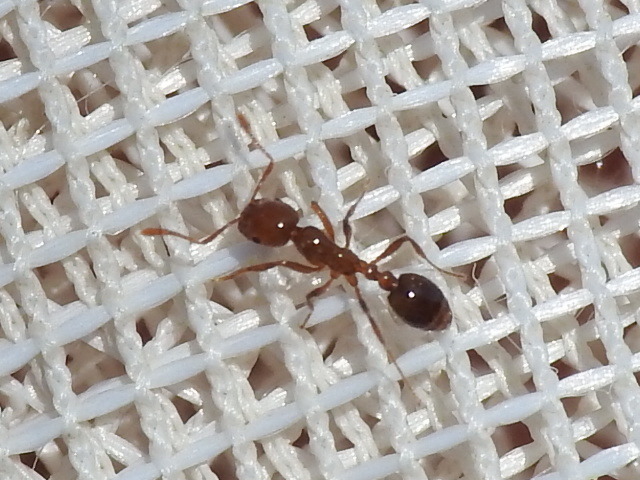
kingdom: Animalia
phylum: Arthropoda
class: Insecta
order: Hymenoptera
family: Formicidae
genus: Solenopsis
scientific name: Solenopsis invicta
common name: Red imported fire ant
